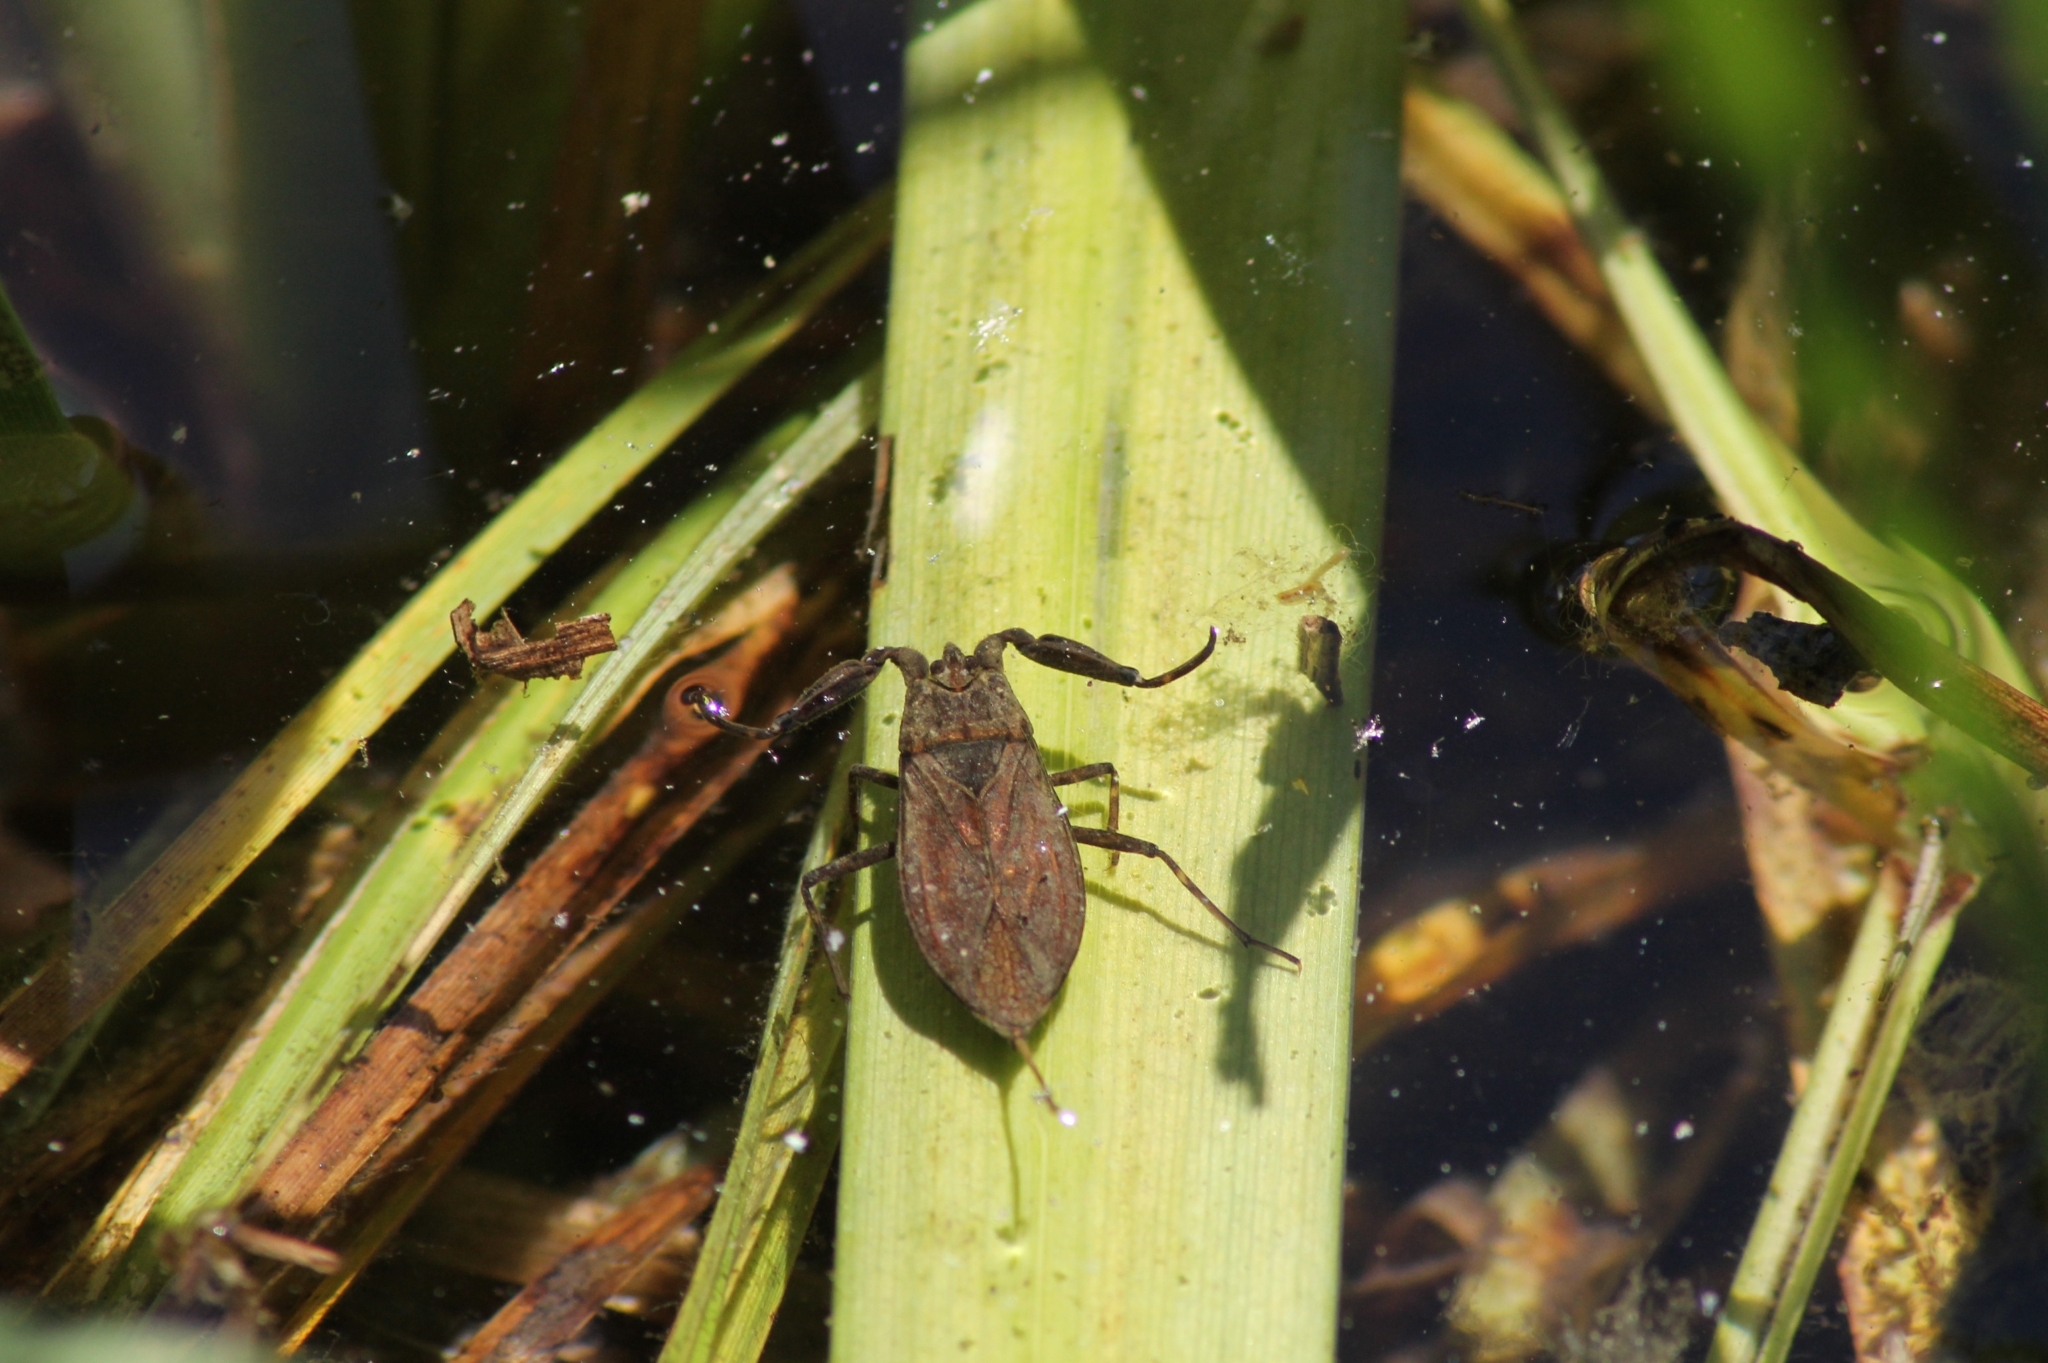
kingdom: Animalia
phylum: Arthropoda
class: Insecta
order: Hemiptera
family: Nepidae
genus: Nepa
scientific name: Nepa cinerea
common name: Water scorpion
